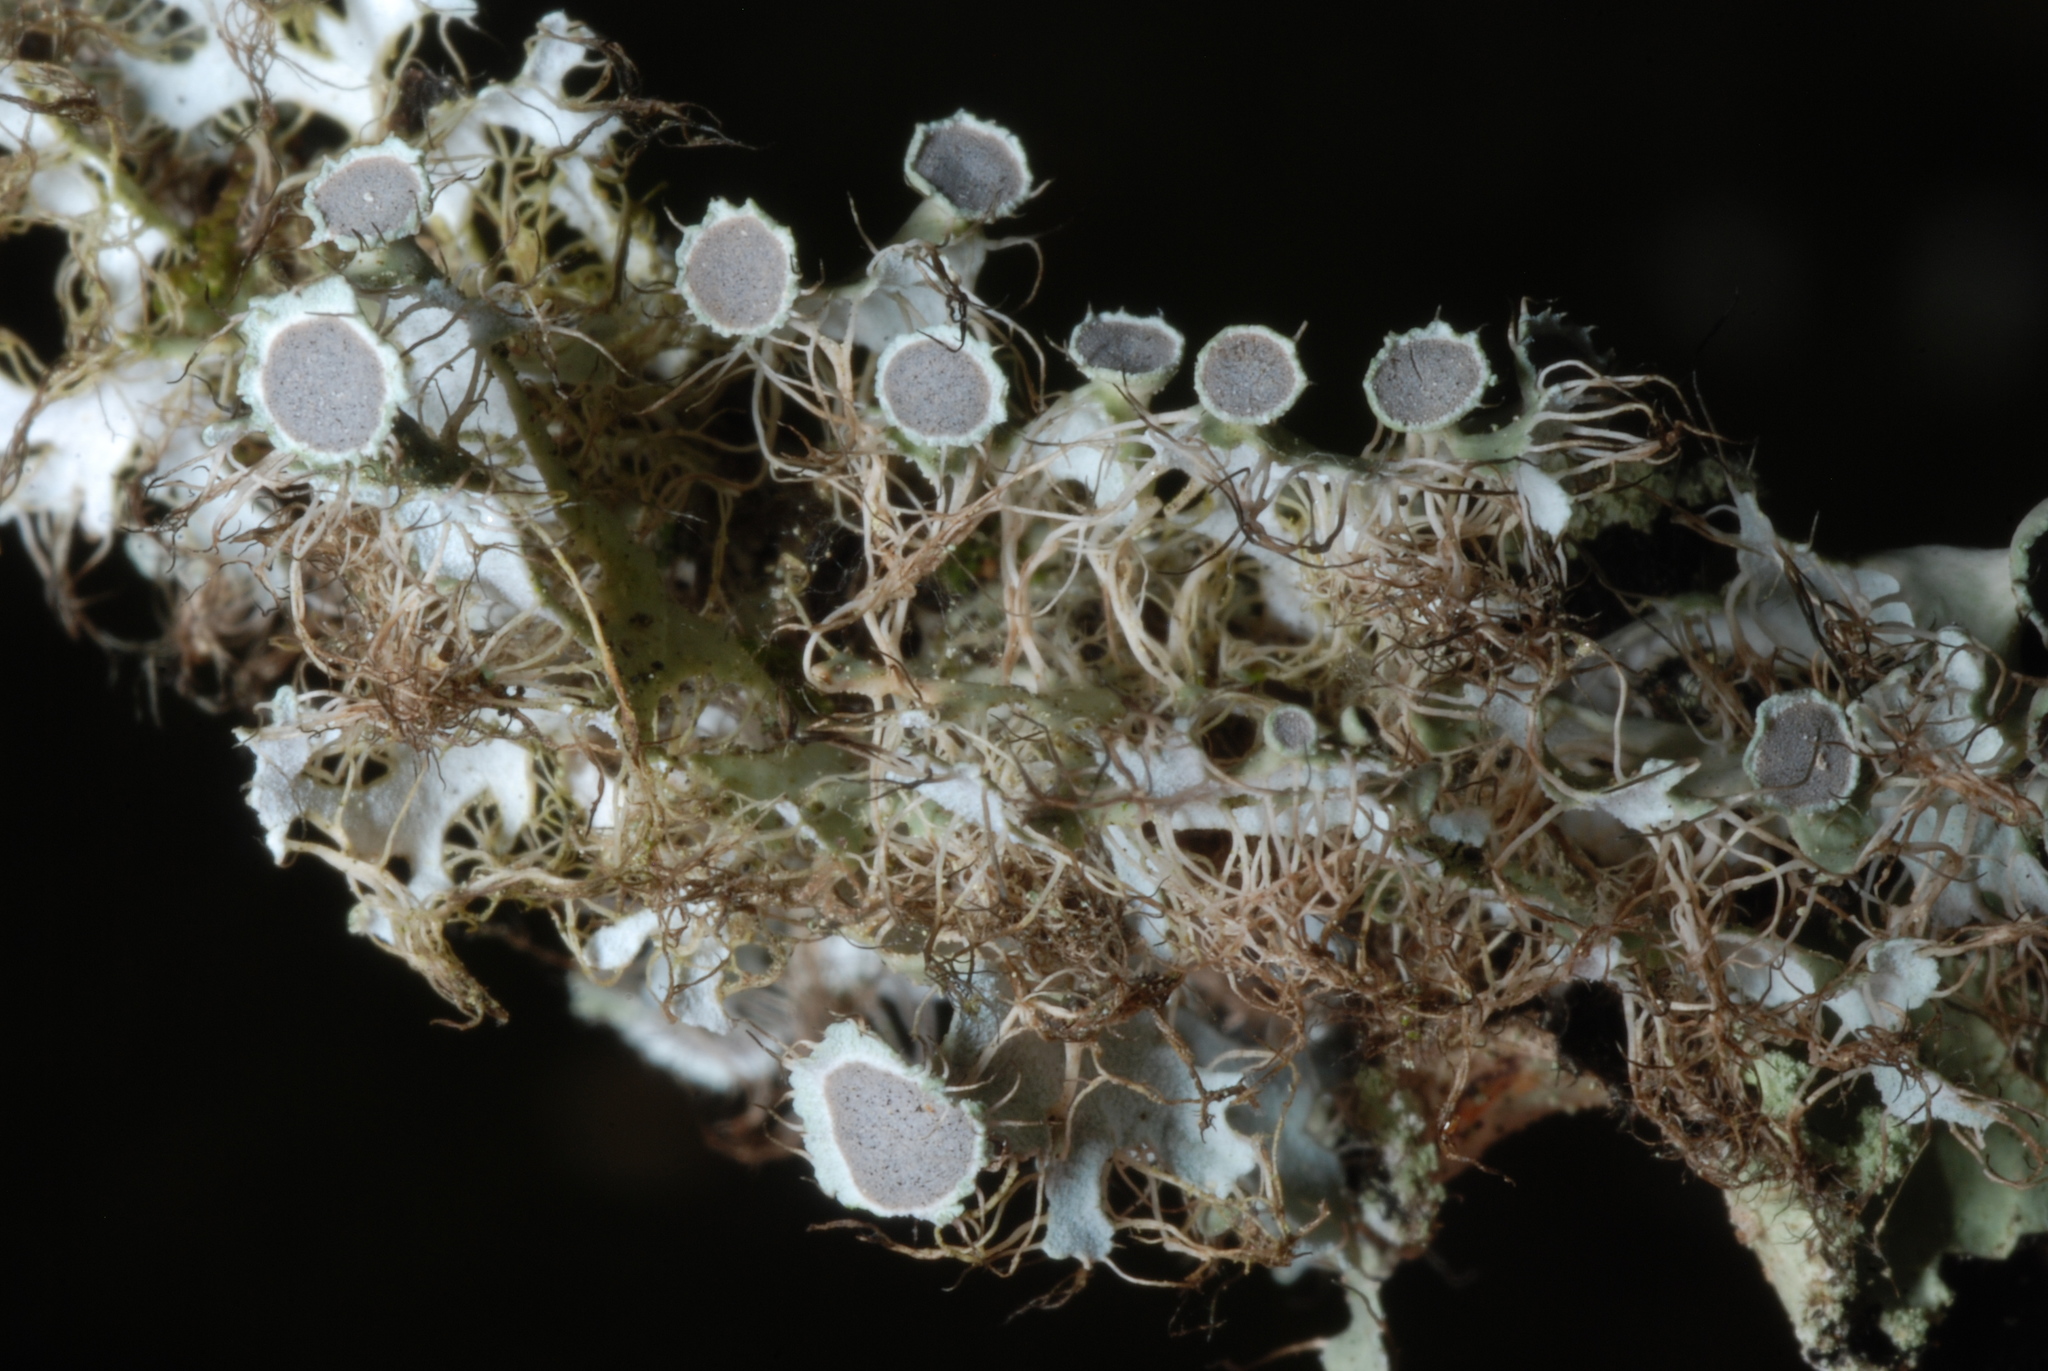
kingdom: Fungi
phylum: Ascomycota
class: Lecanoromycetes
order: Caliciales
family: Physciaceae
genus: Heterodermia
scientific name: Heterodermia echinata
